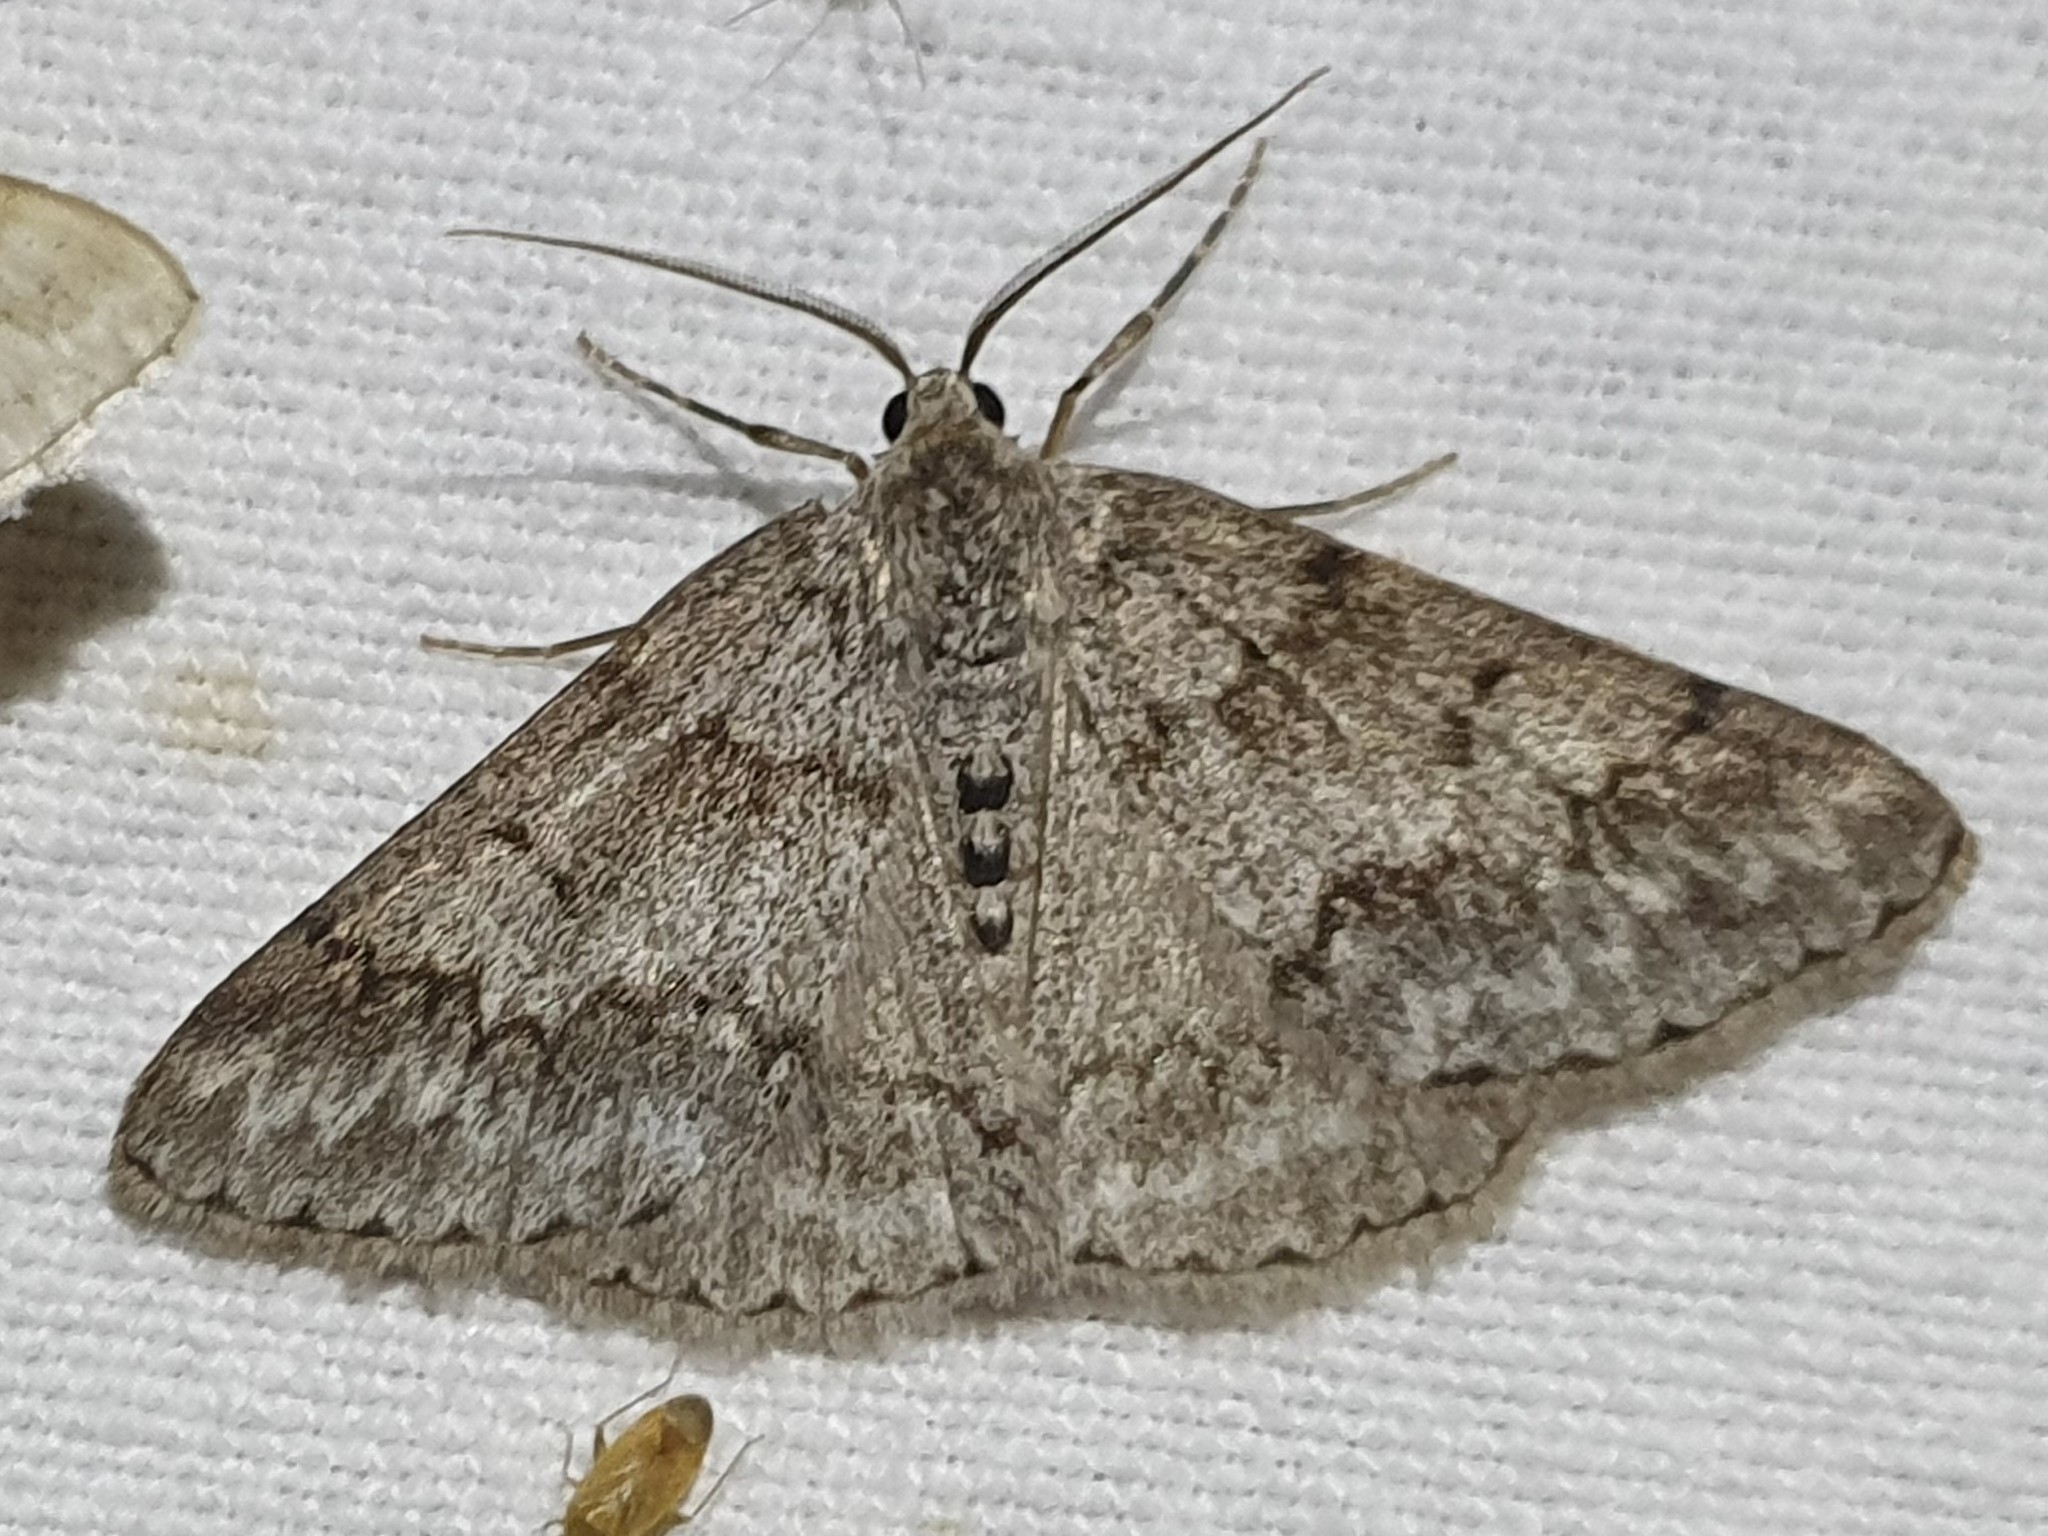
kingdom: Animalia
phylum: Arthropoda
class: Insecta
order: Lepidoptera
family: Geometridae
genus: Pseudoterpna
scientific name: Pseudoterpna coronillaria
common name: Jersey emerald
